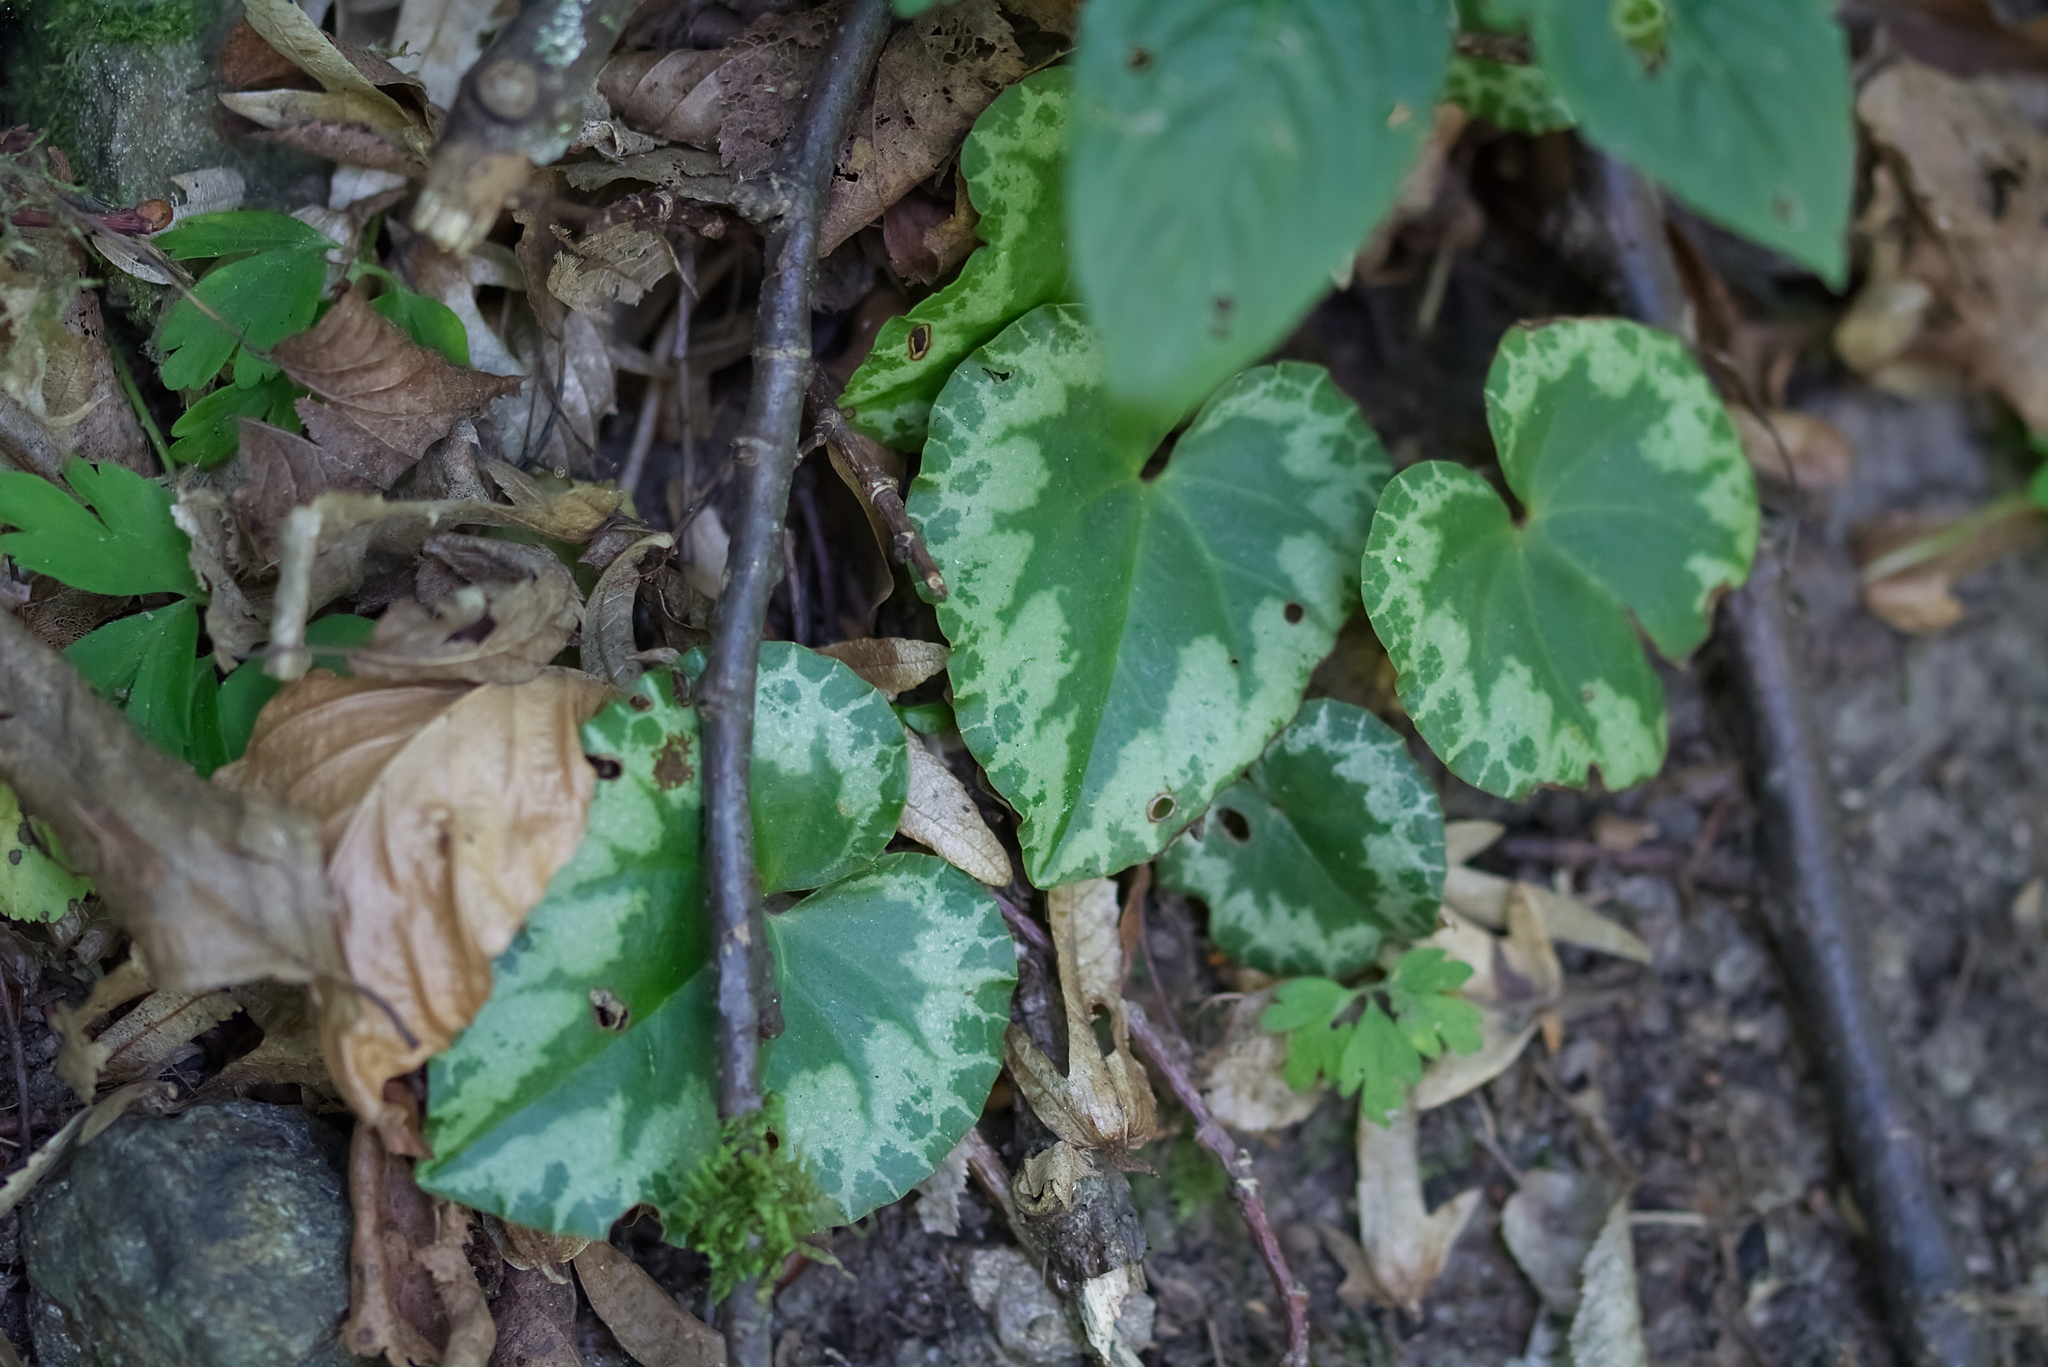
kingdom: Plantae
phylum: Tracheophyta
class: Magnoliopsida
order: Ericales
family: Primulaceae
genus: Cyclamen
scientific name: Cyclamen purpurascens
